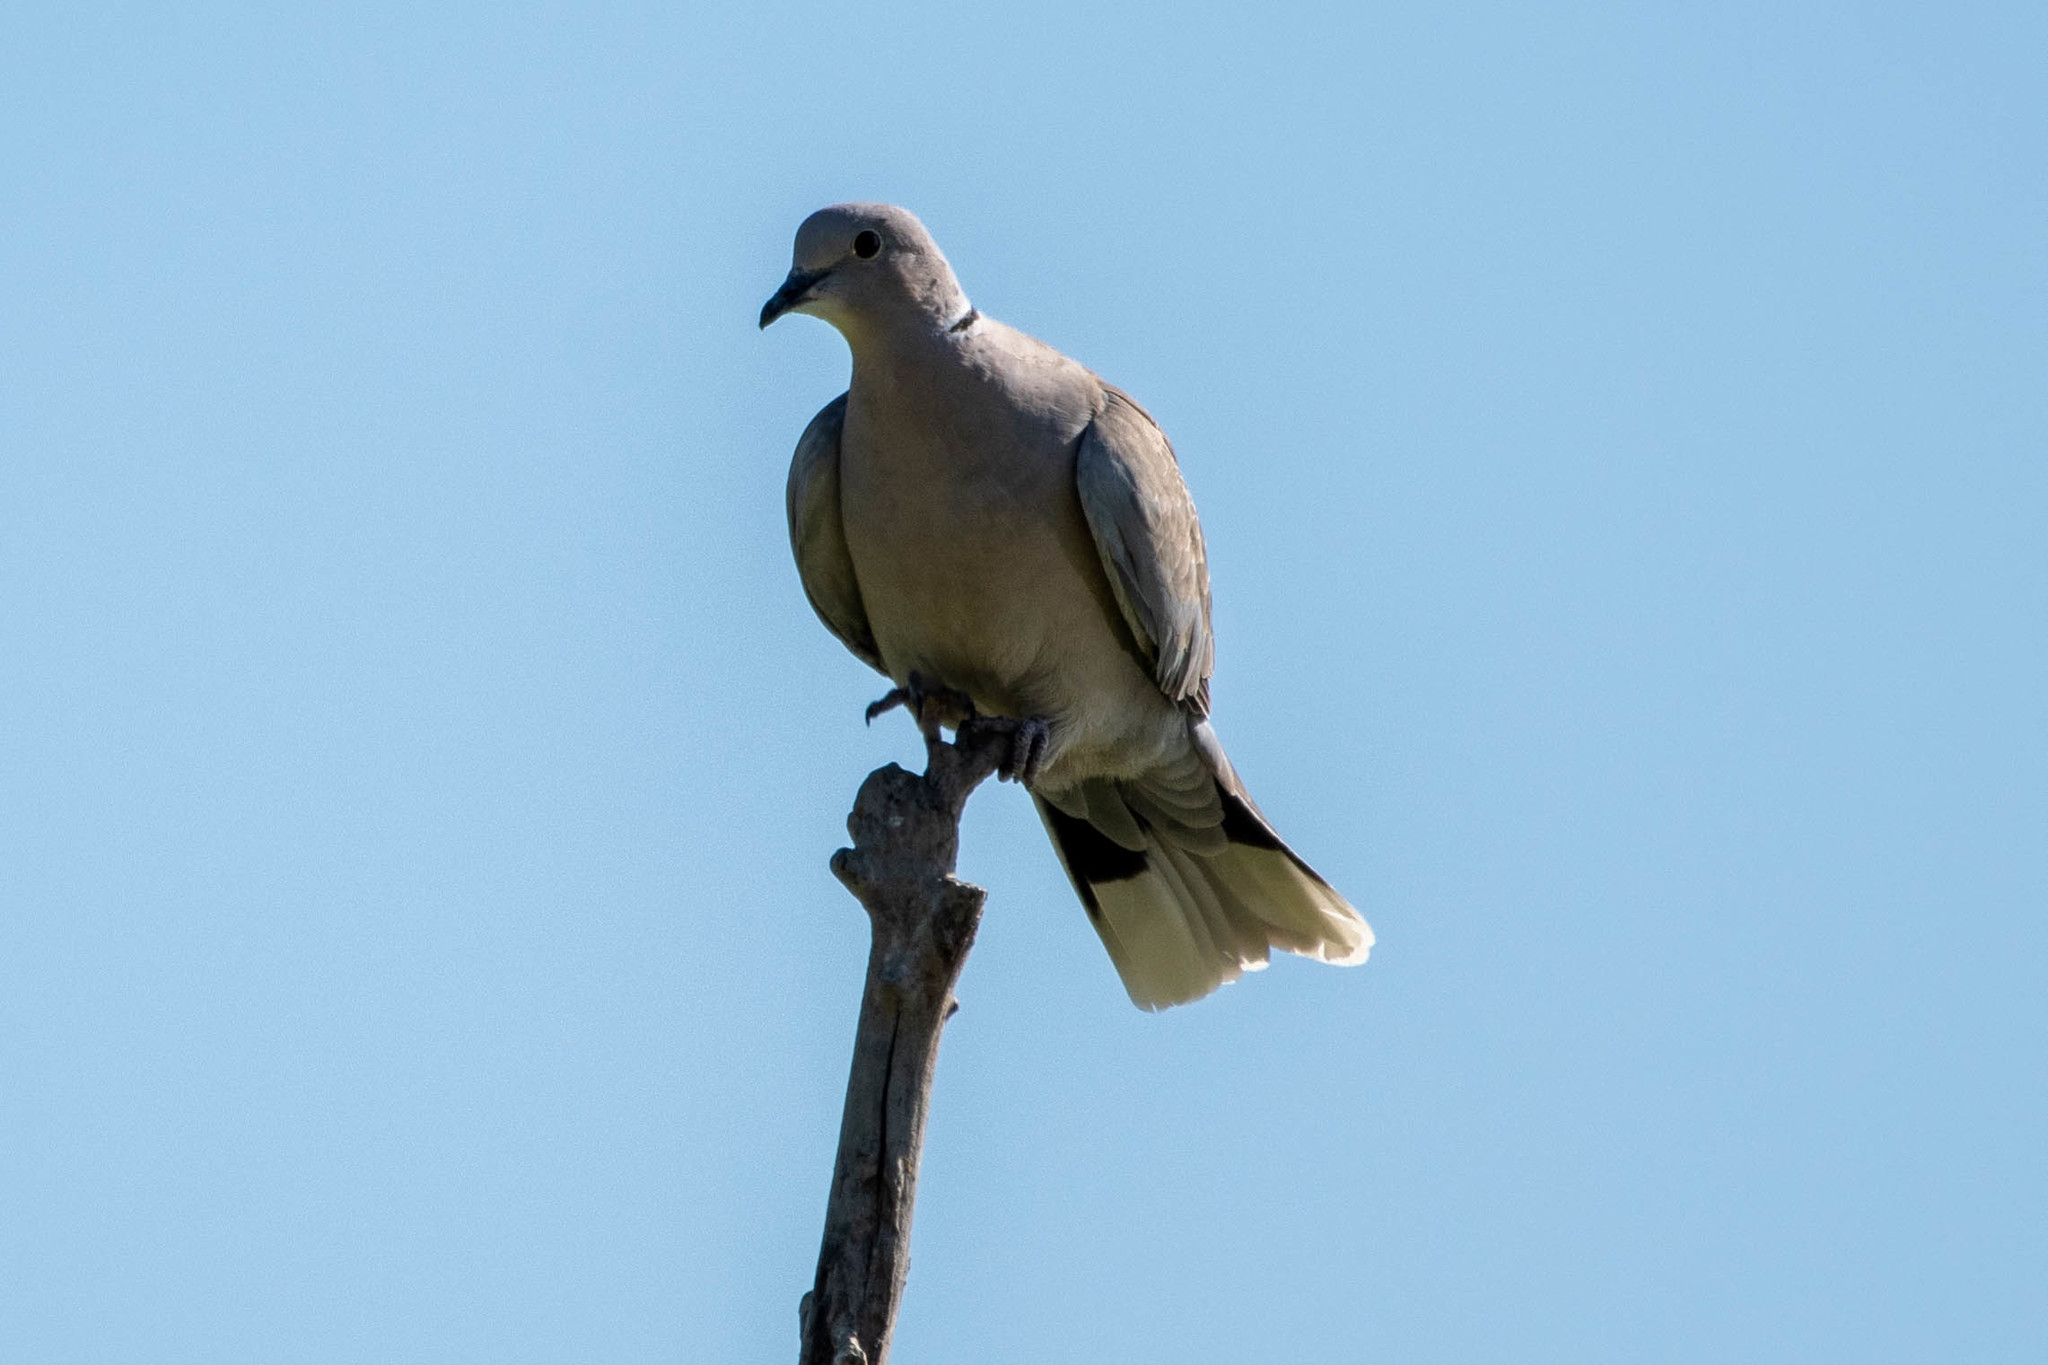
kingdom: Animalia
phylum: Chordata
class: Aves
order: Columbiformes
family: Columbidae
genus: Streptopelia
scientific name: Streptopelia decaocto
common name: Eurasian collared dove
